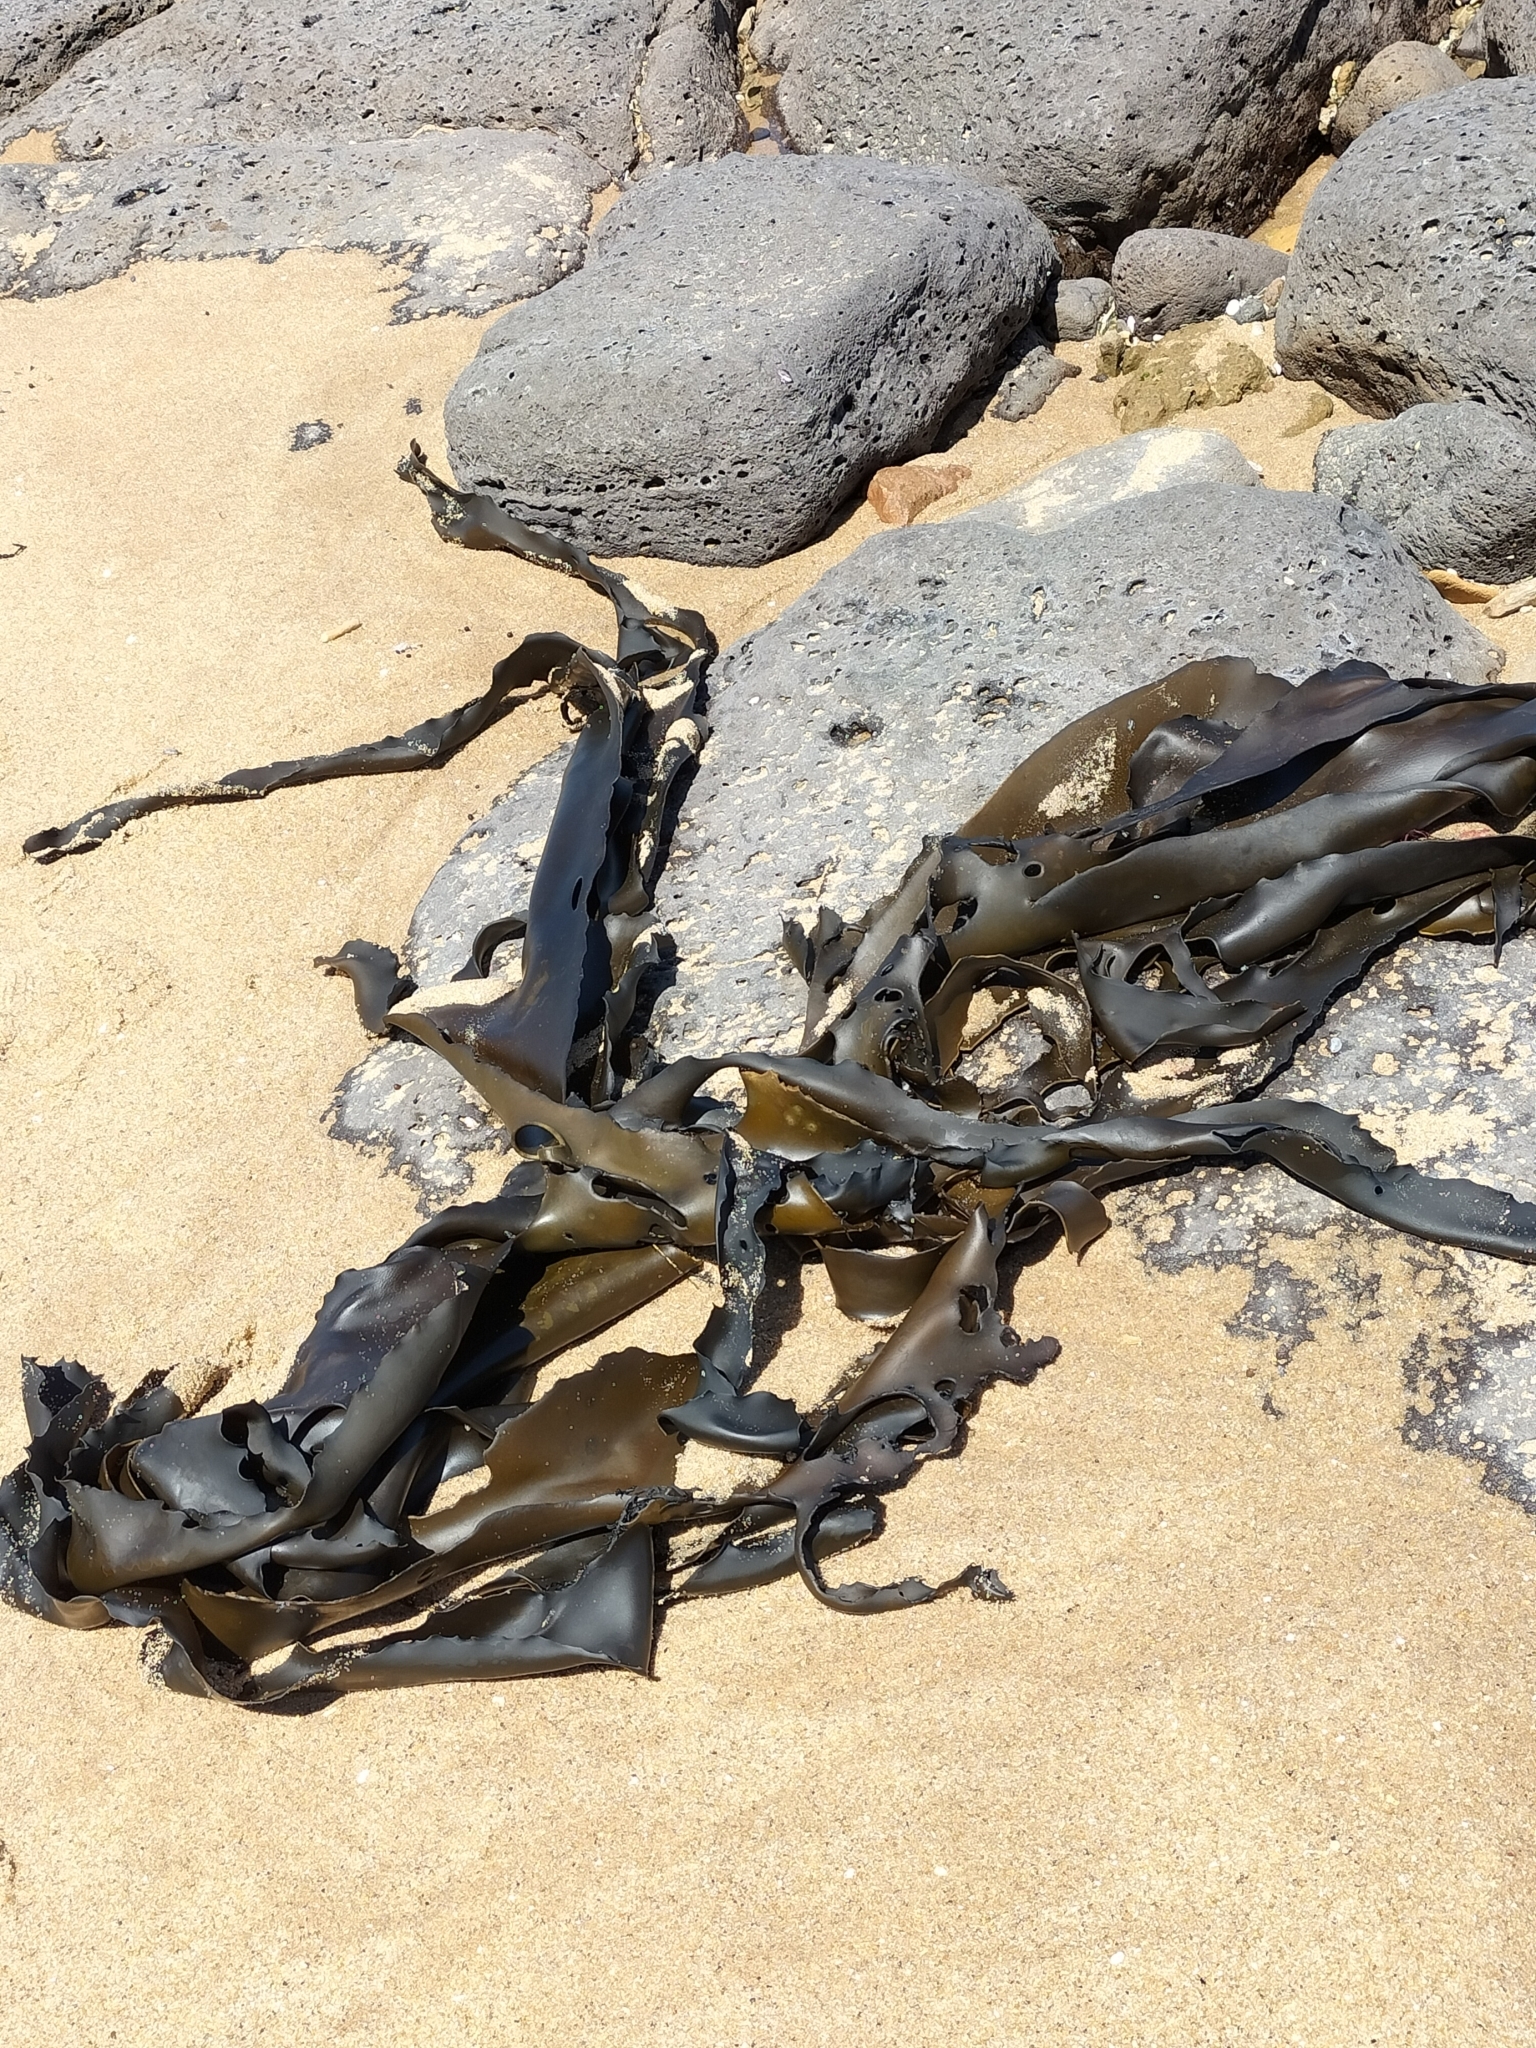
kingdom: Chromista
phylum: Ochrophyta
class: Phaeophyceae
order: Fucales
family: Durvillaeaceae
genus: Durvillaea
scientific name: Durvillaea
